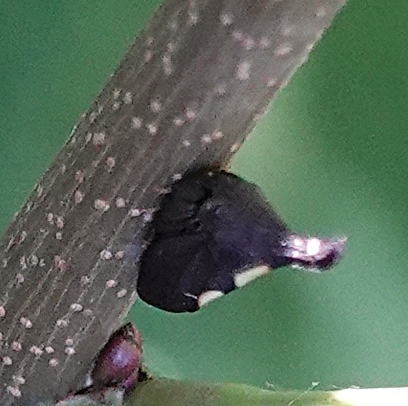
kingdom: Animalia
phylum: Arthropoda
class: Insecta
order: Hemiptera
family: Membracidae
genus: Enchenopa
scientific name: Enchenopa
